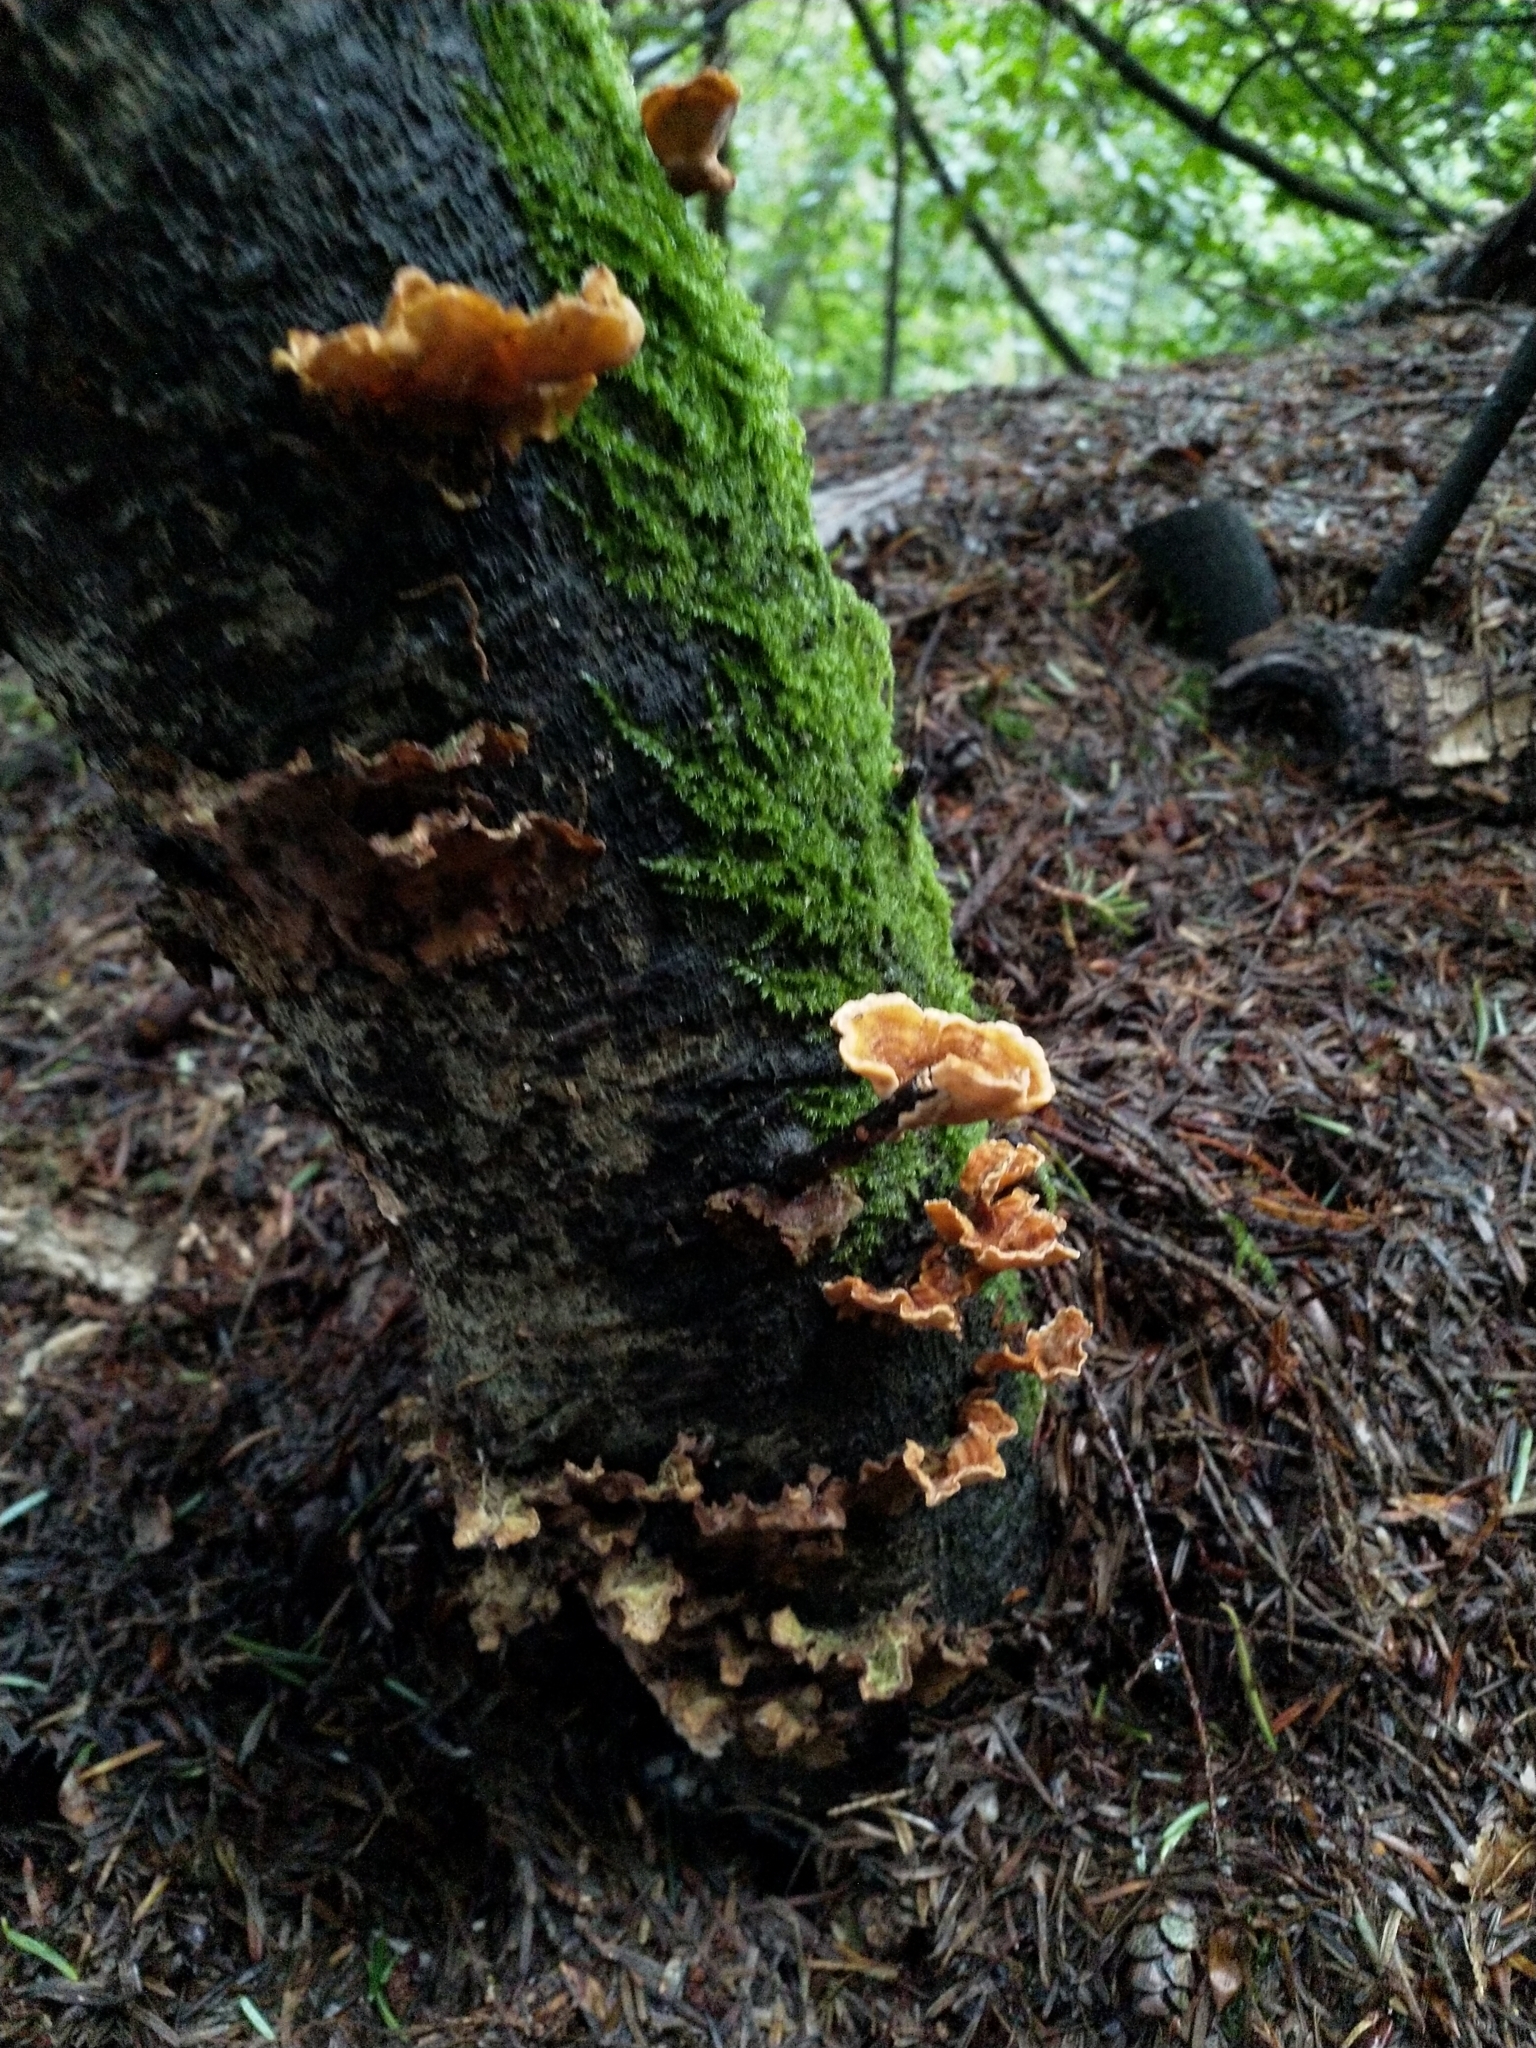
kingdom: Fungi
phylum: Basidiomycota
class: Agaricomycetes
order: Russulales
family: Stereaceae
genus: Stereum
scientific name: Stereum hirsutum
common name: Hairy curtain crust
